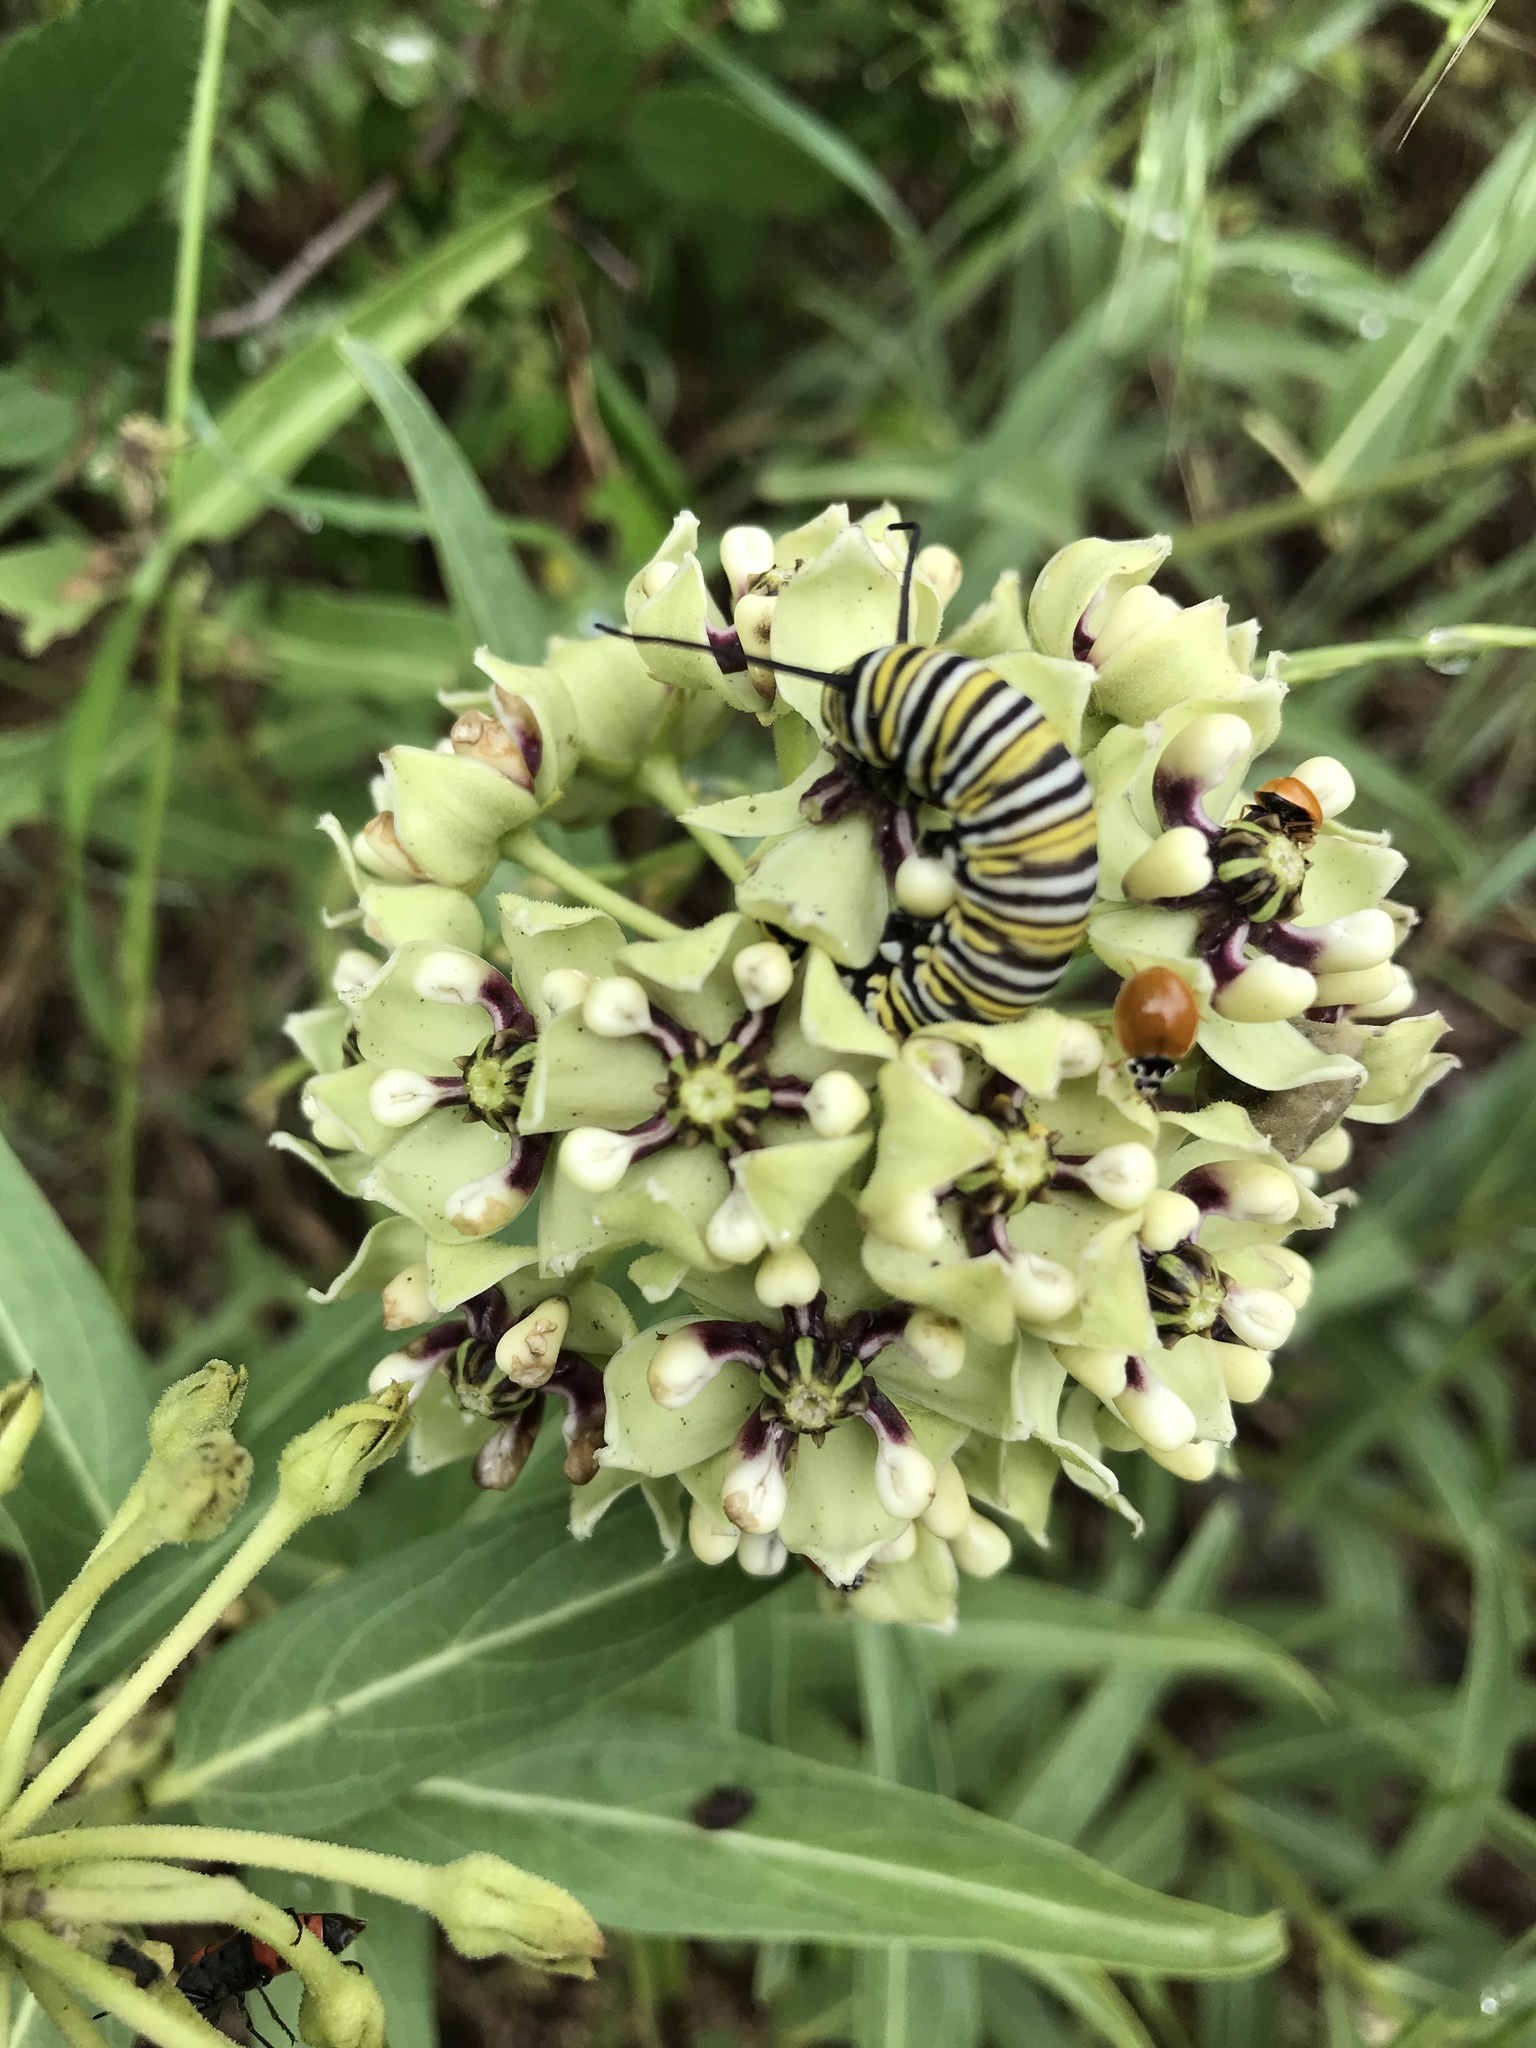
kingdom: Animalia
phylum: Arthropoda
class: Insecta
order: Lepidoptera
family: Nymphalidae
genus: Danaus
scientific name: Danaus plexippus
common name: Monarch
